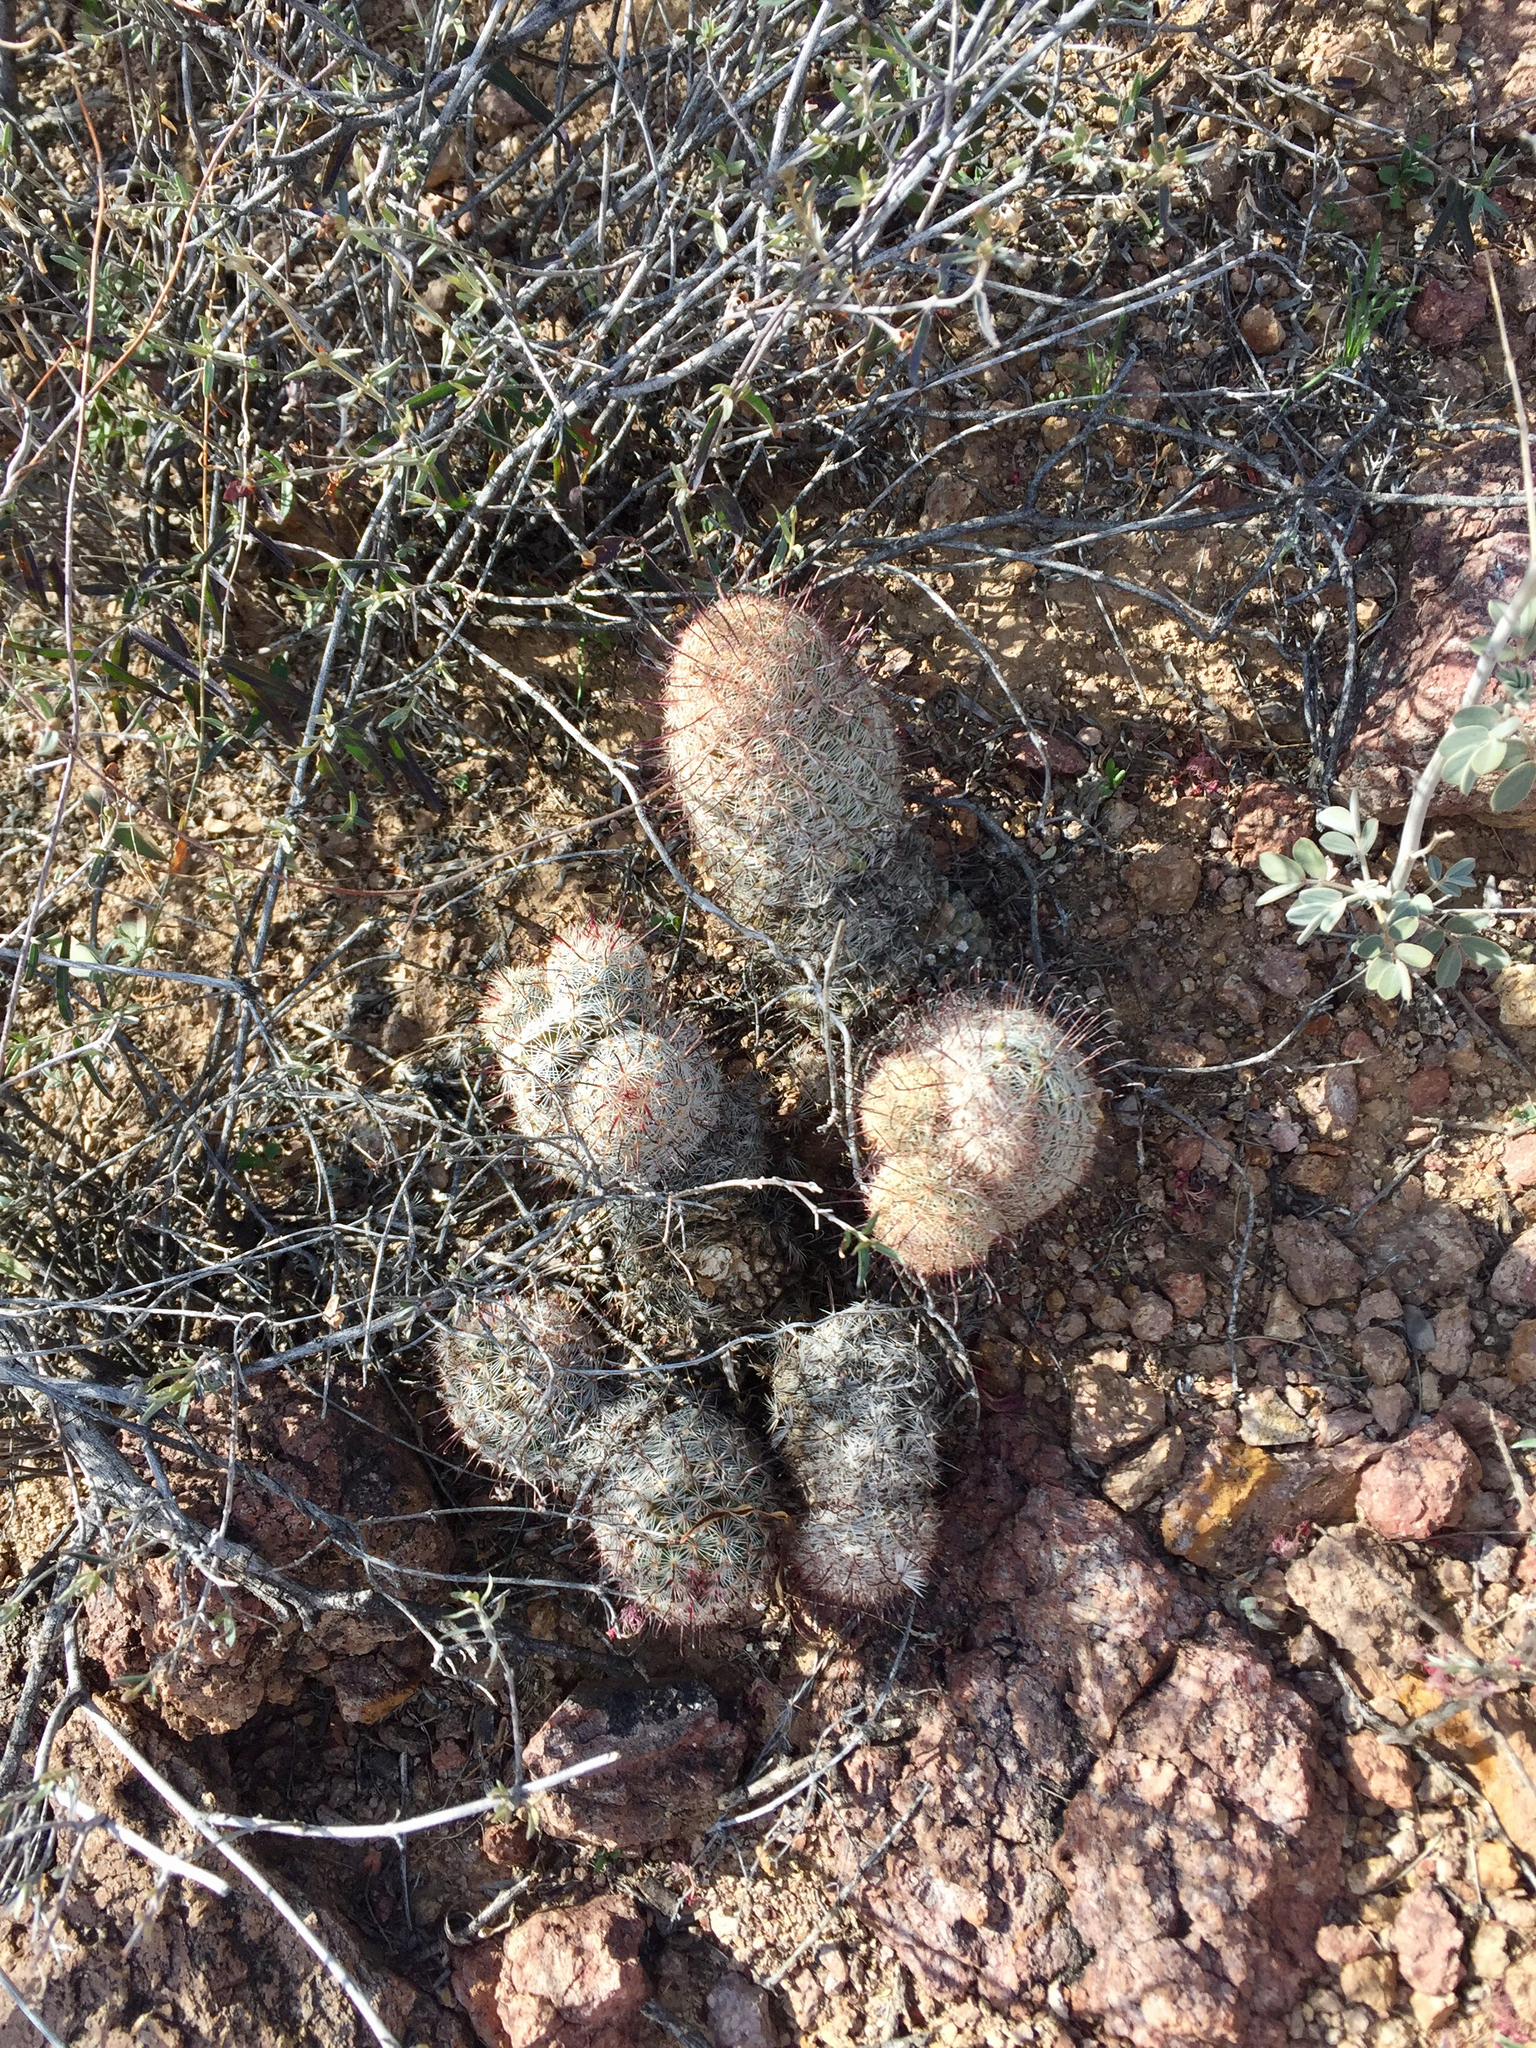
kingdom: Plantae
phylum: Tracheophyta
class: Magnoliopsida
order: Caryophyllales
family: Cactaceae
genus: Cochemiea
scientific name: Cochemiea grahamii
